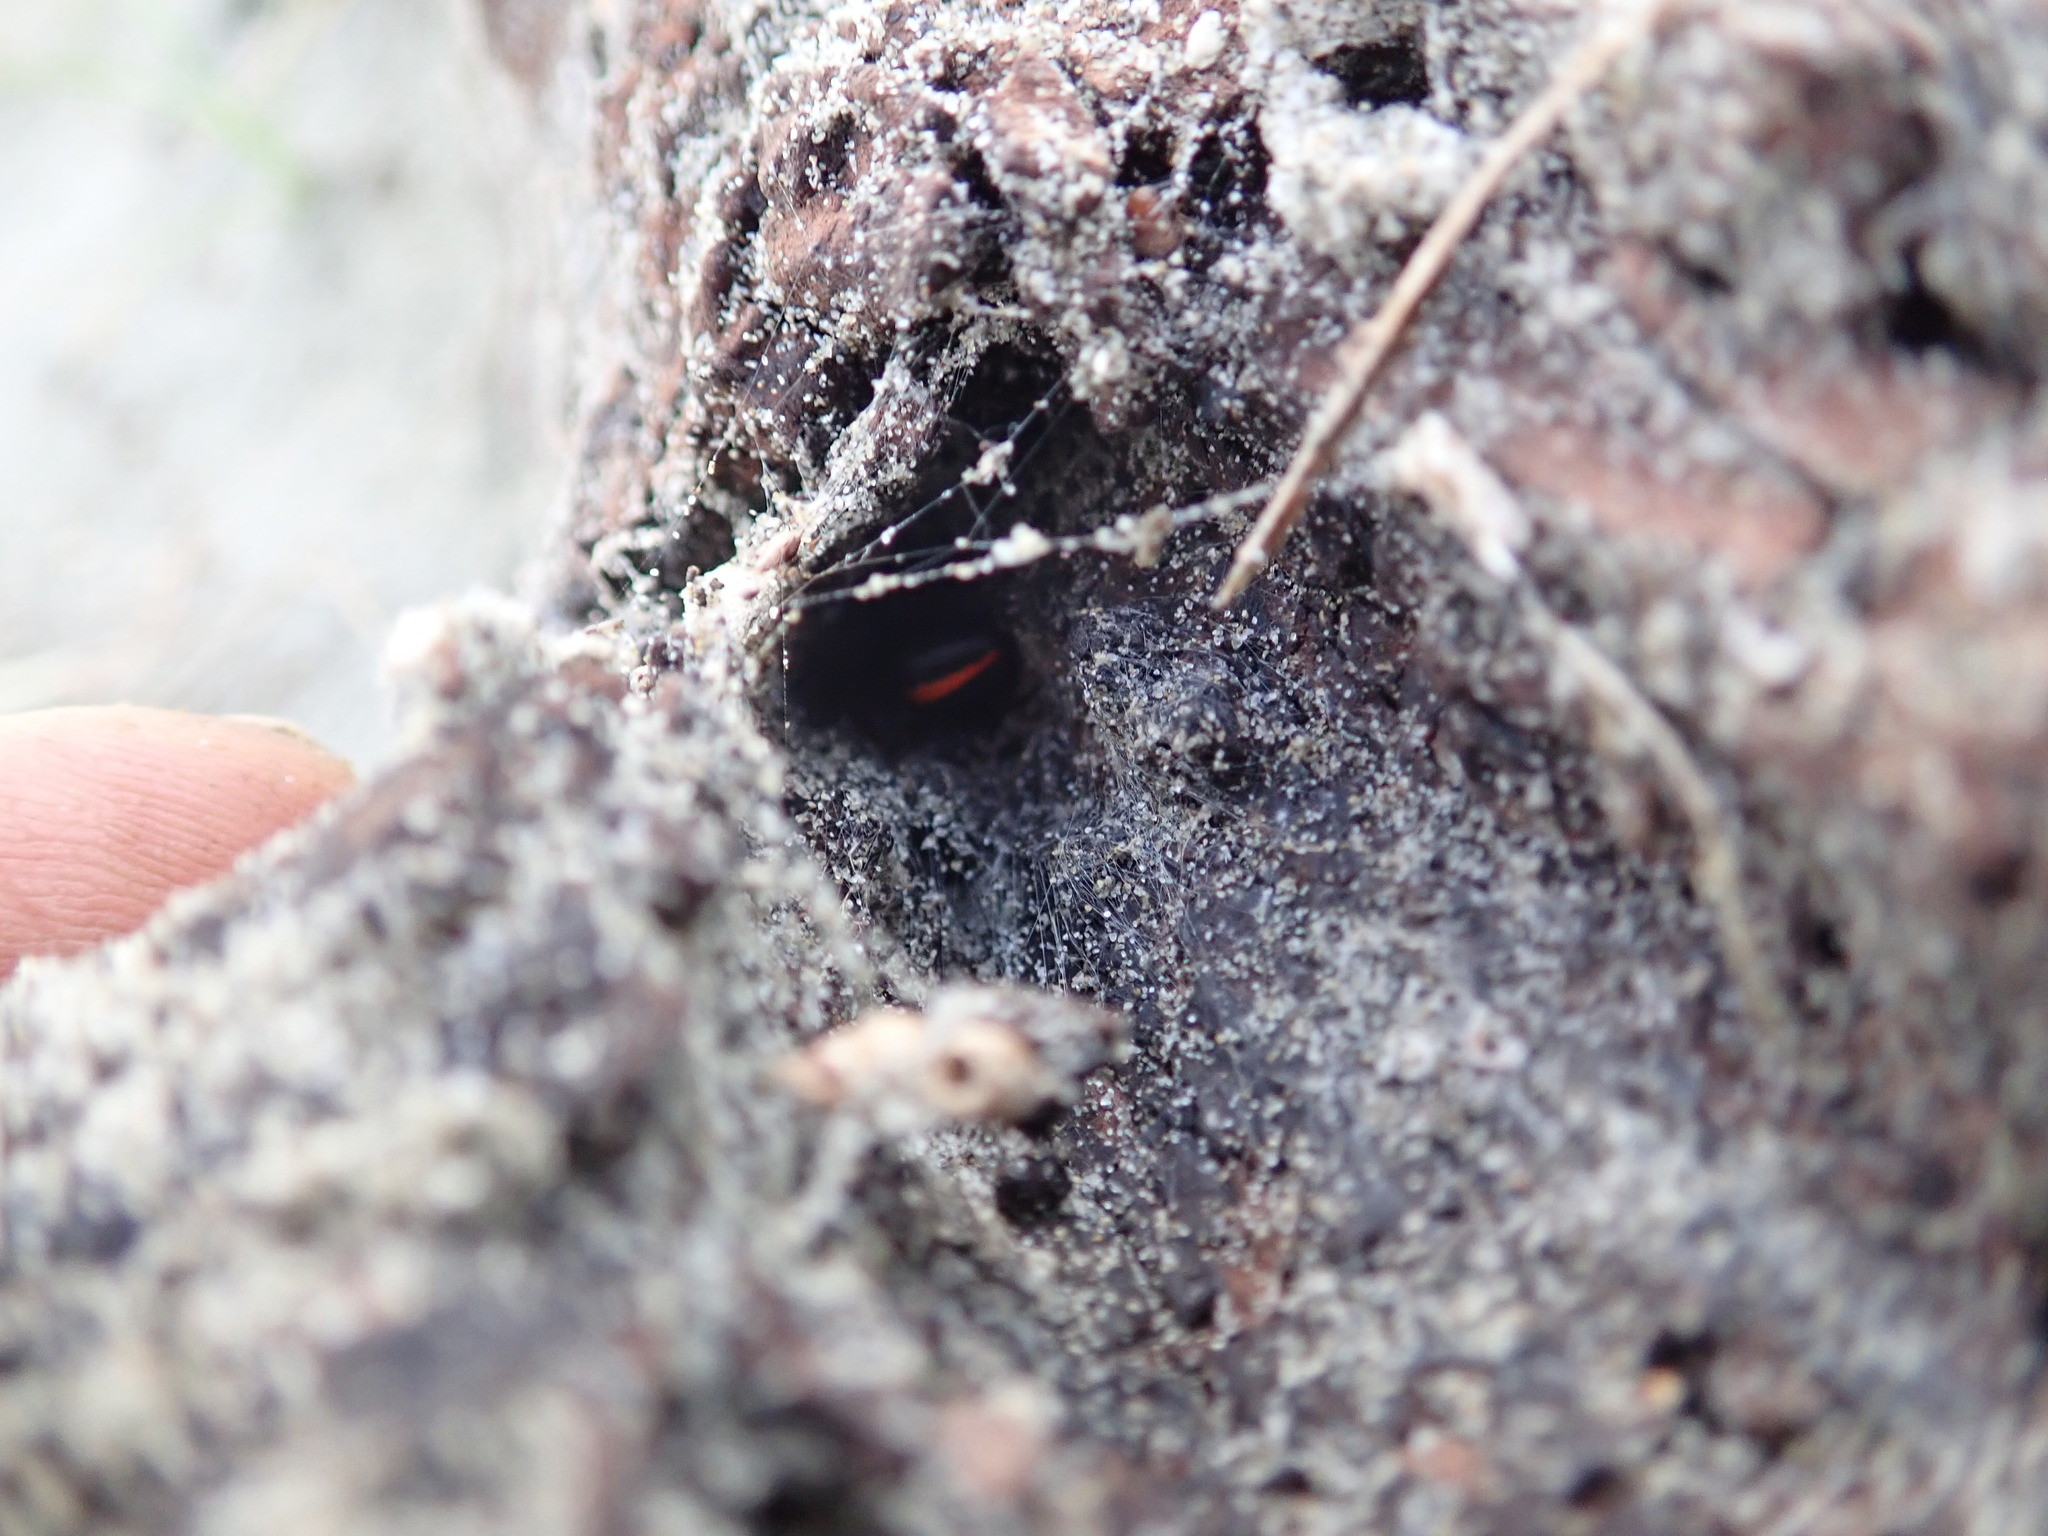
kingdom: Animalia
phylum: Arthropoda
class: Arachnida
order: Araneae
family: Theridiidae
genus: Latrodectus
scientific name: Latrodectus katipo
